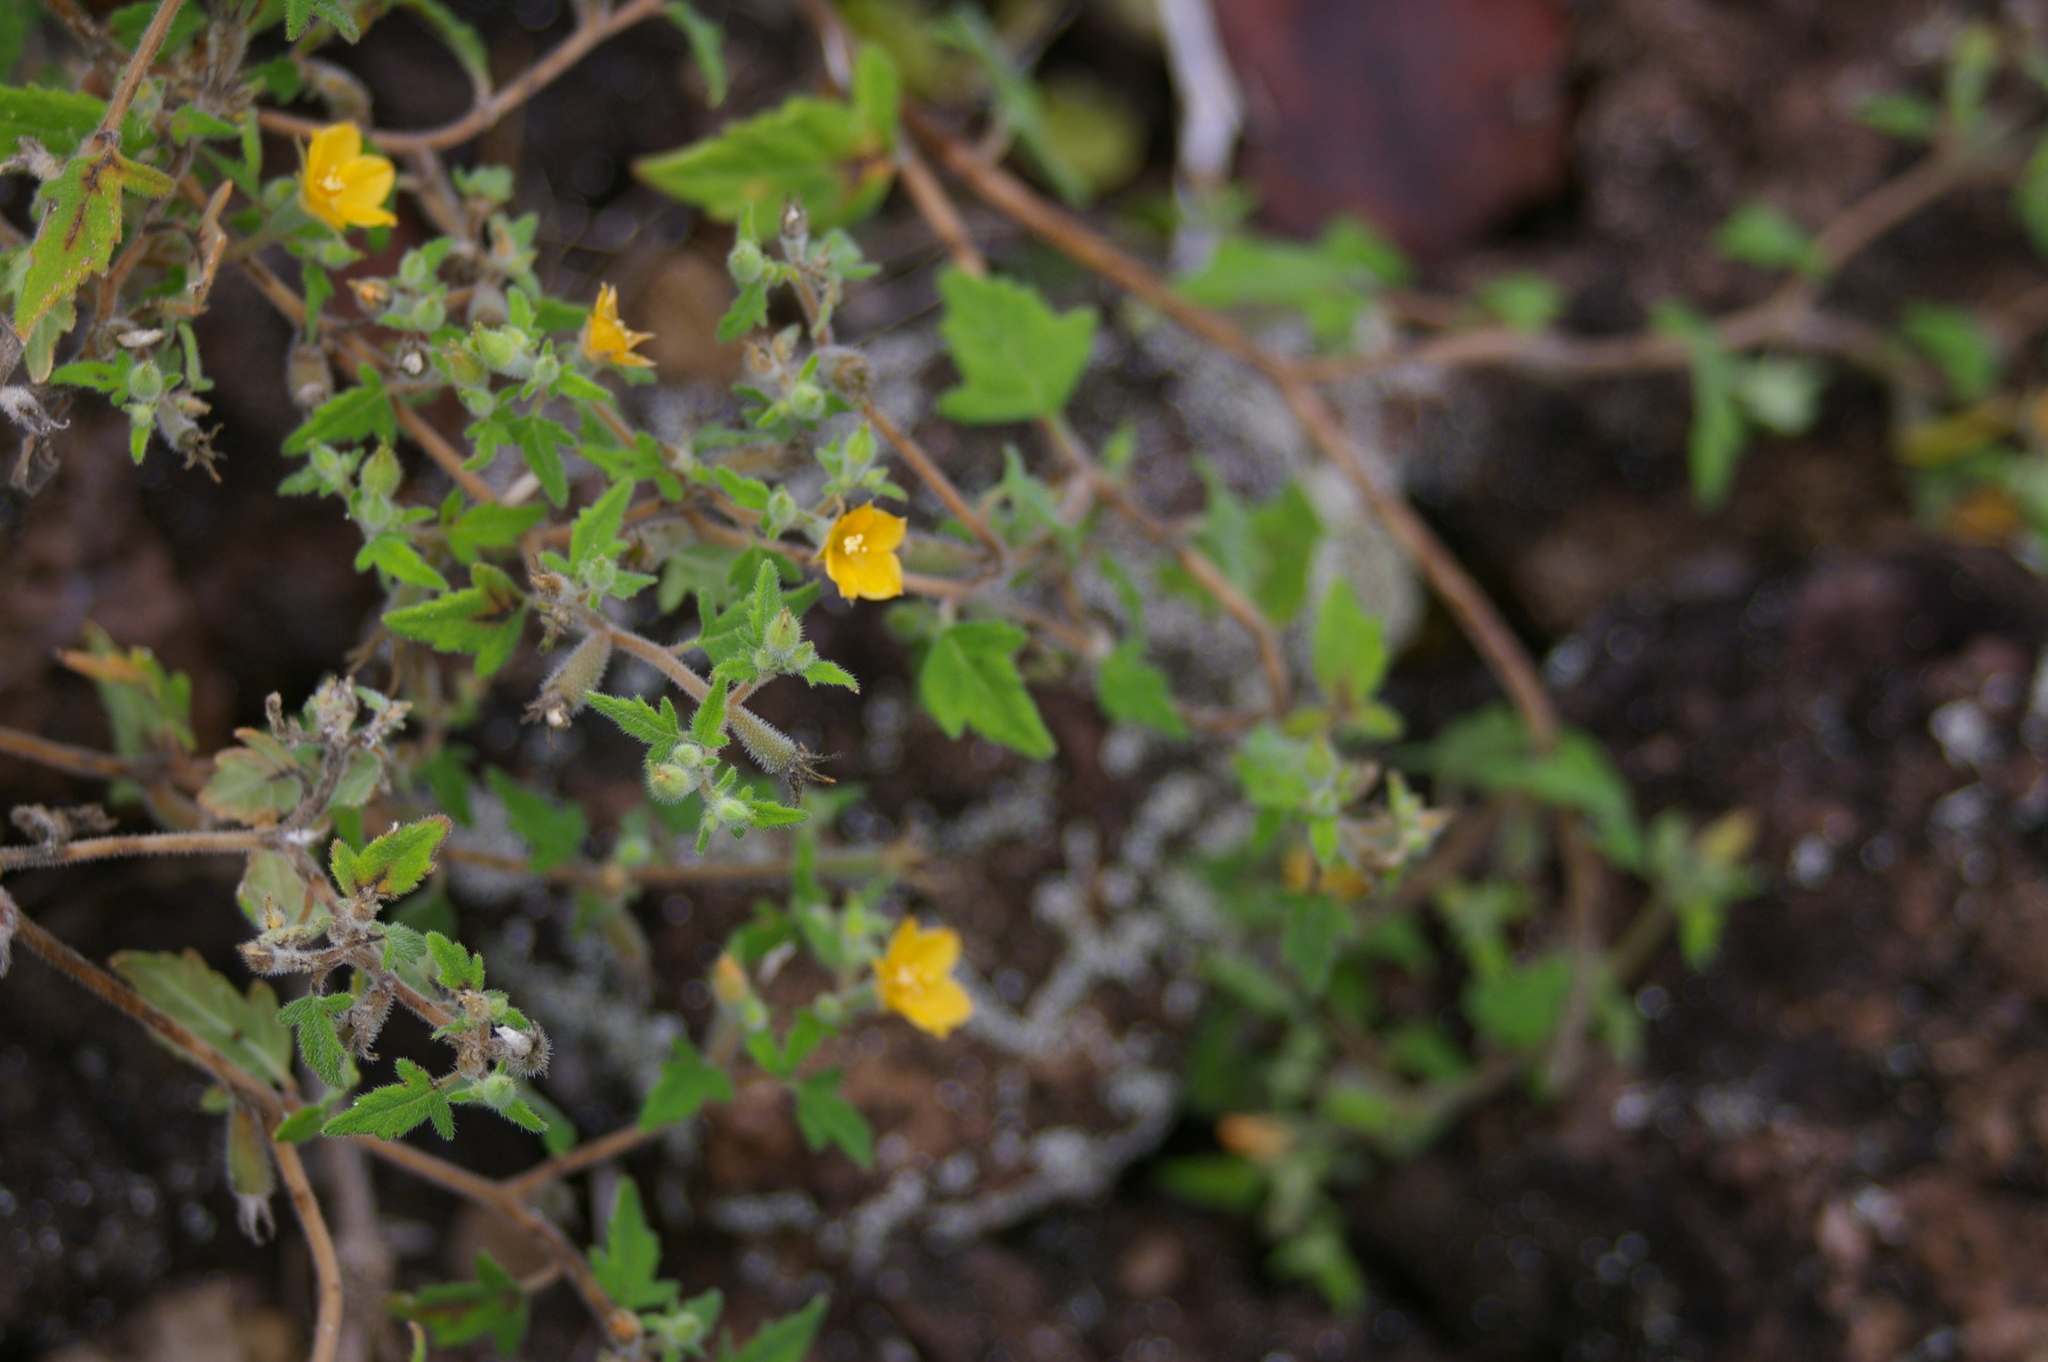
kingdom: Plantae
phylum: Tracheophyta
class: Magnoliopsida
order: Cornales
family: Loasaceae
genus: Mentzelia
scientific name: Mentzelia aspera
